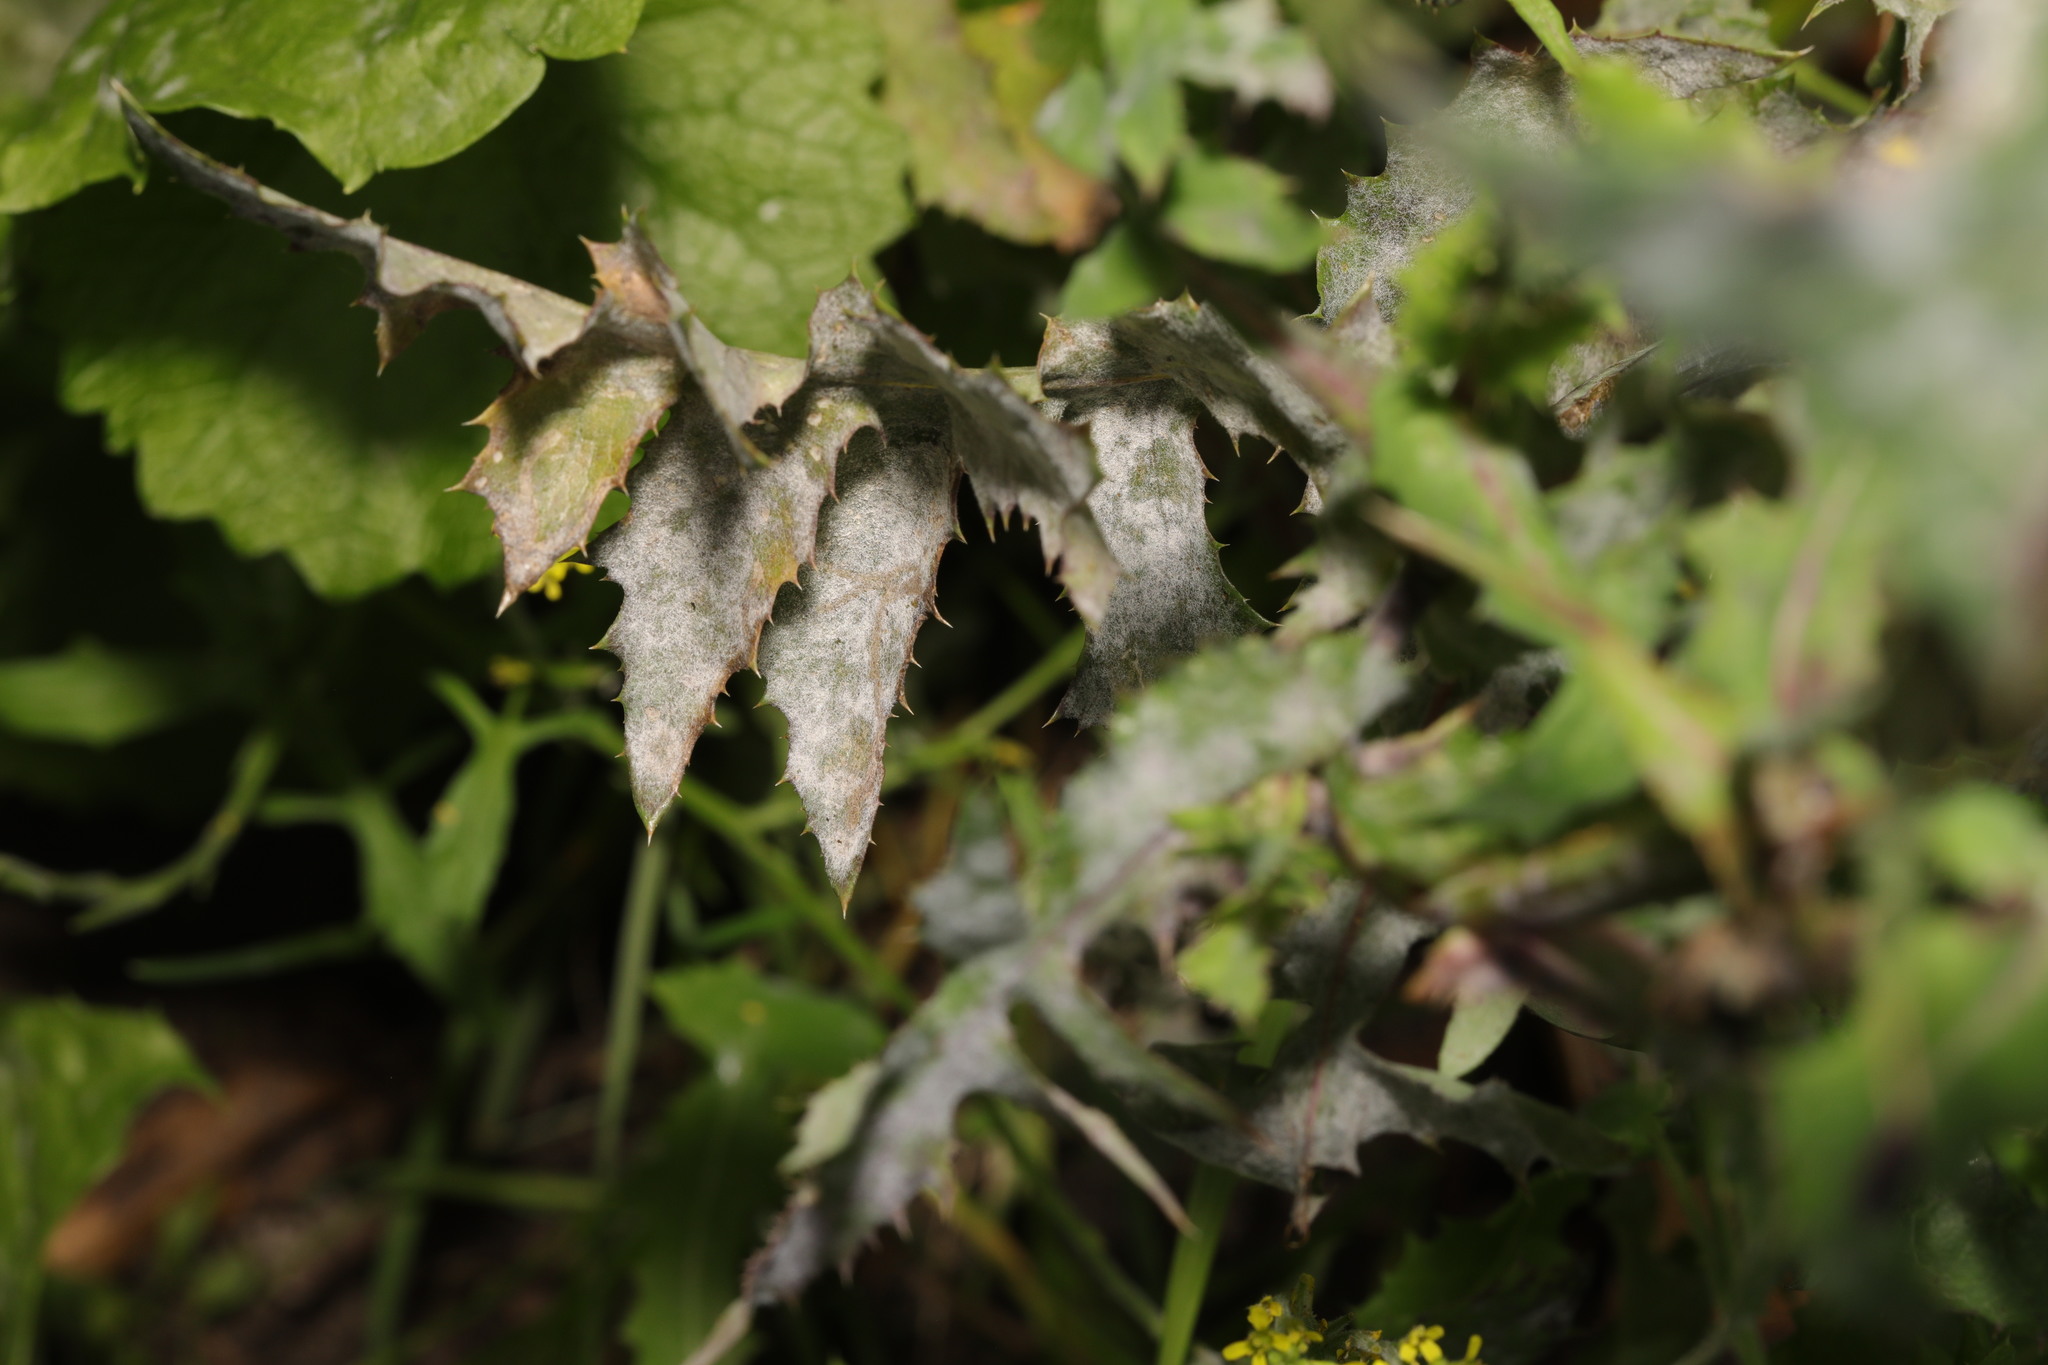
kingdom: Fungi
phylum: Ascomycota
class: Leotiomycetes
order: Helotiales
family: Erysiphaceae
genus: Golovinomyces
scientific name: Golovinomyces sonchicola
